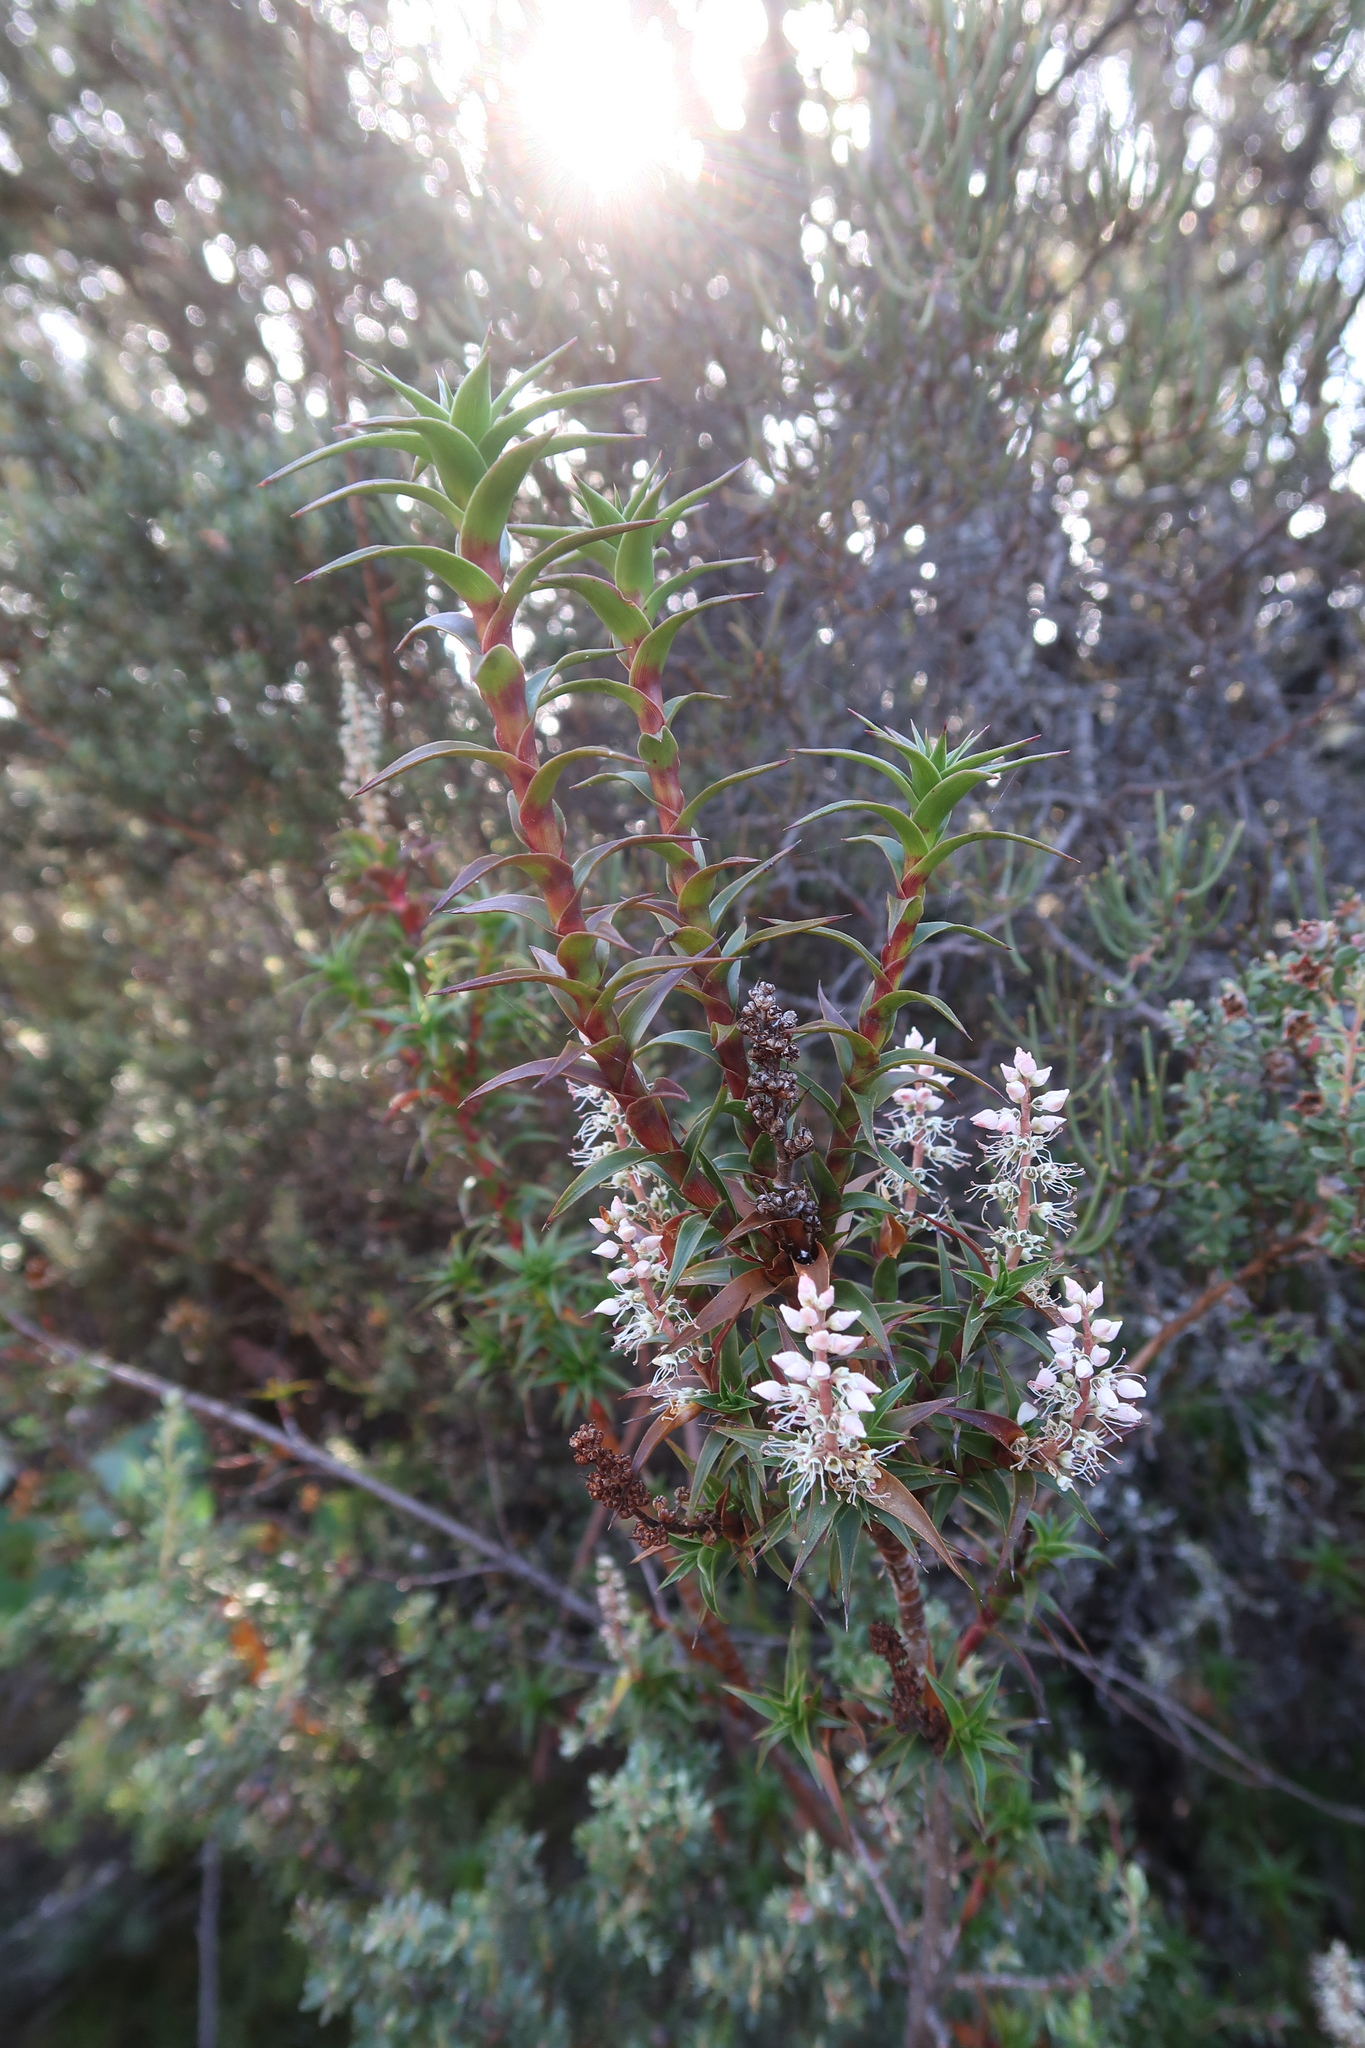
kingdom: Plantae
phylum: Tracheophyta
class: Magnoliopsida
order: Ericales
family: Ericaceae
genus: Dracophyllum
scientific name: Dracophyllum gunnii
